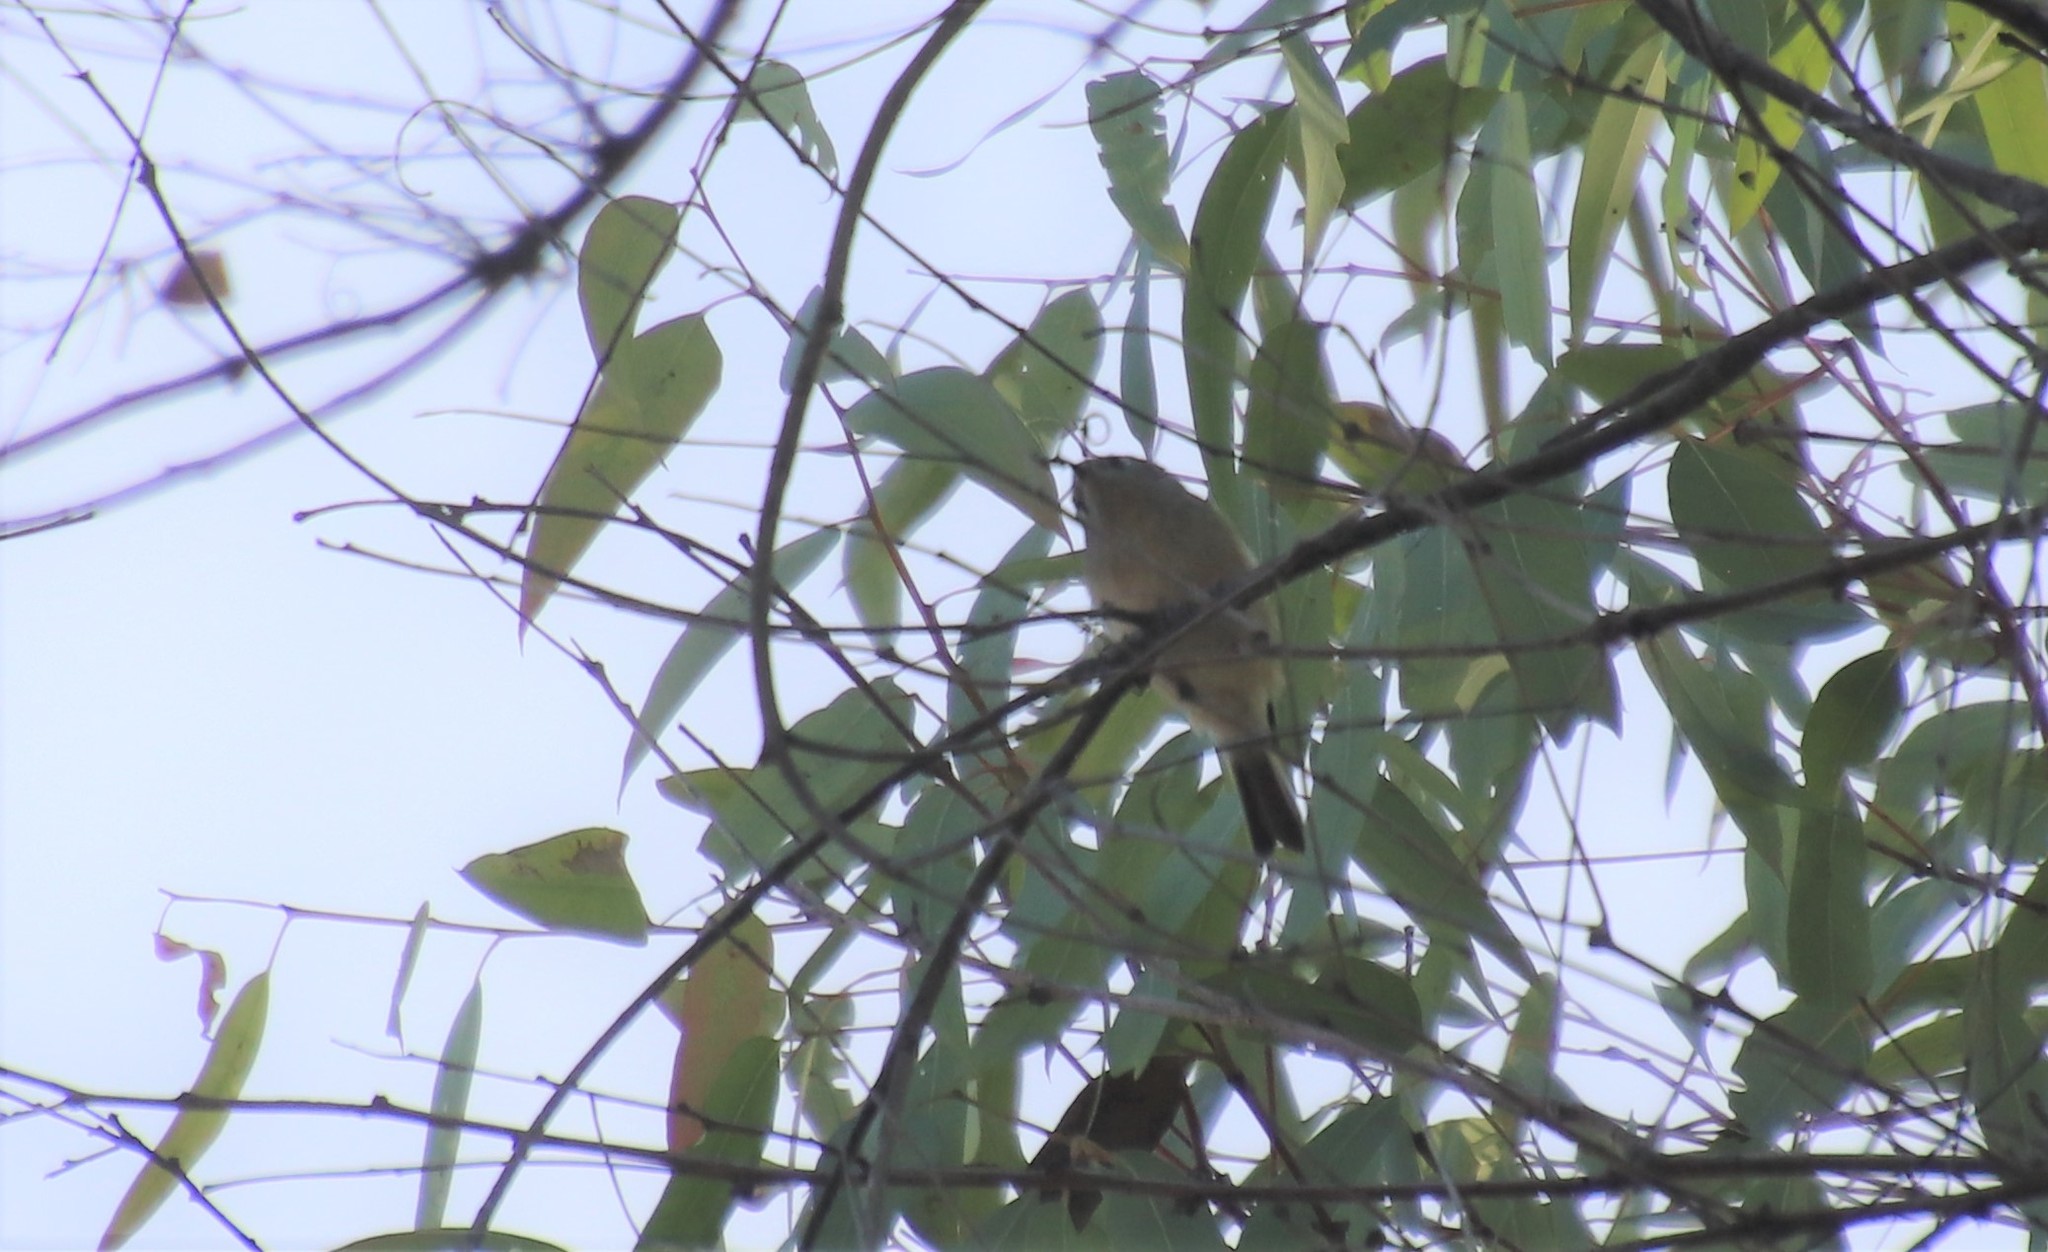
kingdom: Animalia
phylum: Chordata
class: Aves
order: Passeriformes
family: Regulidae
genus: Regulus
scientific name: Regulus calendula
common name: Ruby-crowned kinglet
